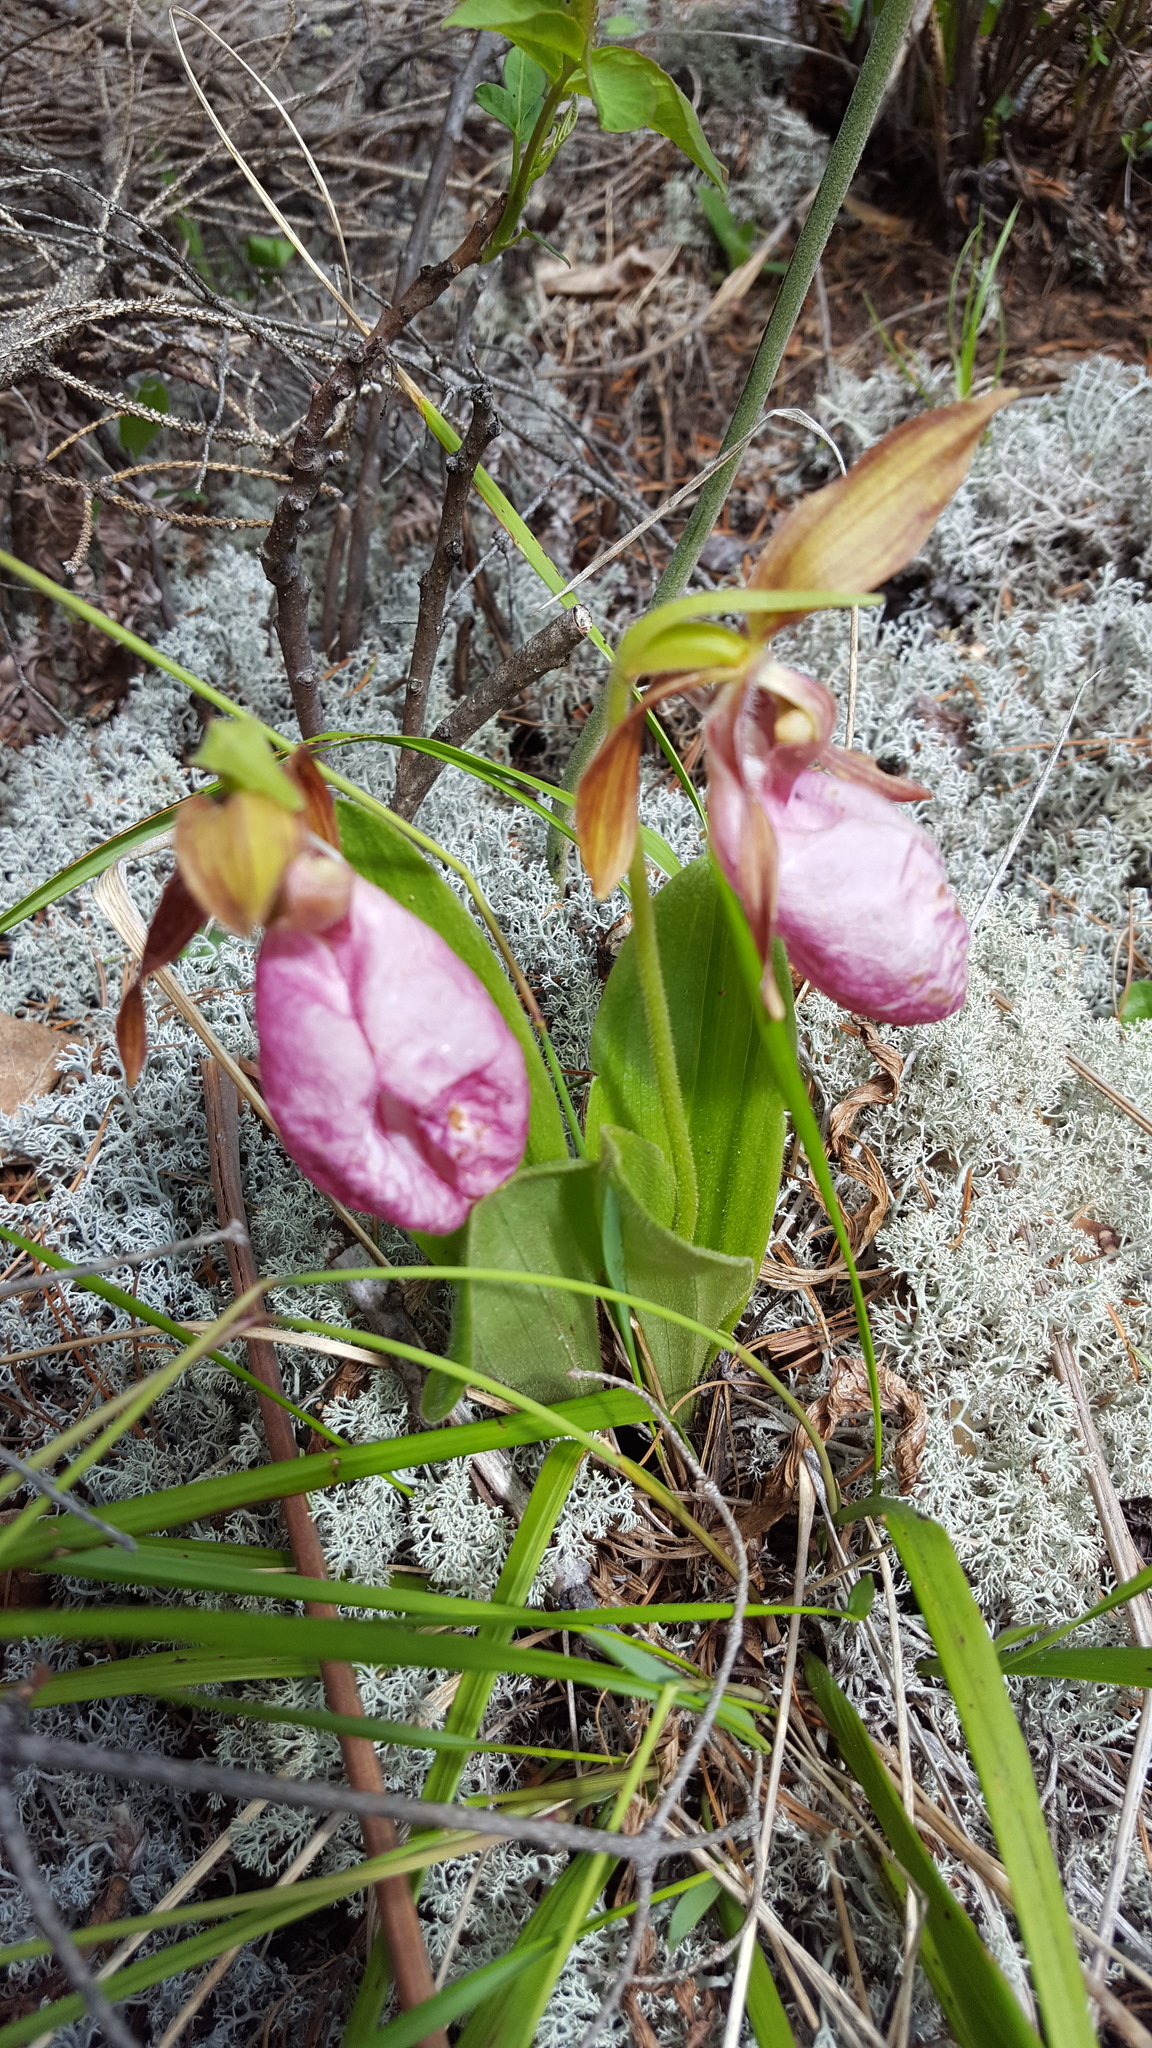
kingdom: Plantae
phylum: Tracheophyta
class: Liliopsida
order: Asparagales
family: Orchidaceae
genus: Cypripedium
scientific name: Cypripedium acaule
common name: Pink lady's-slipper
